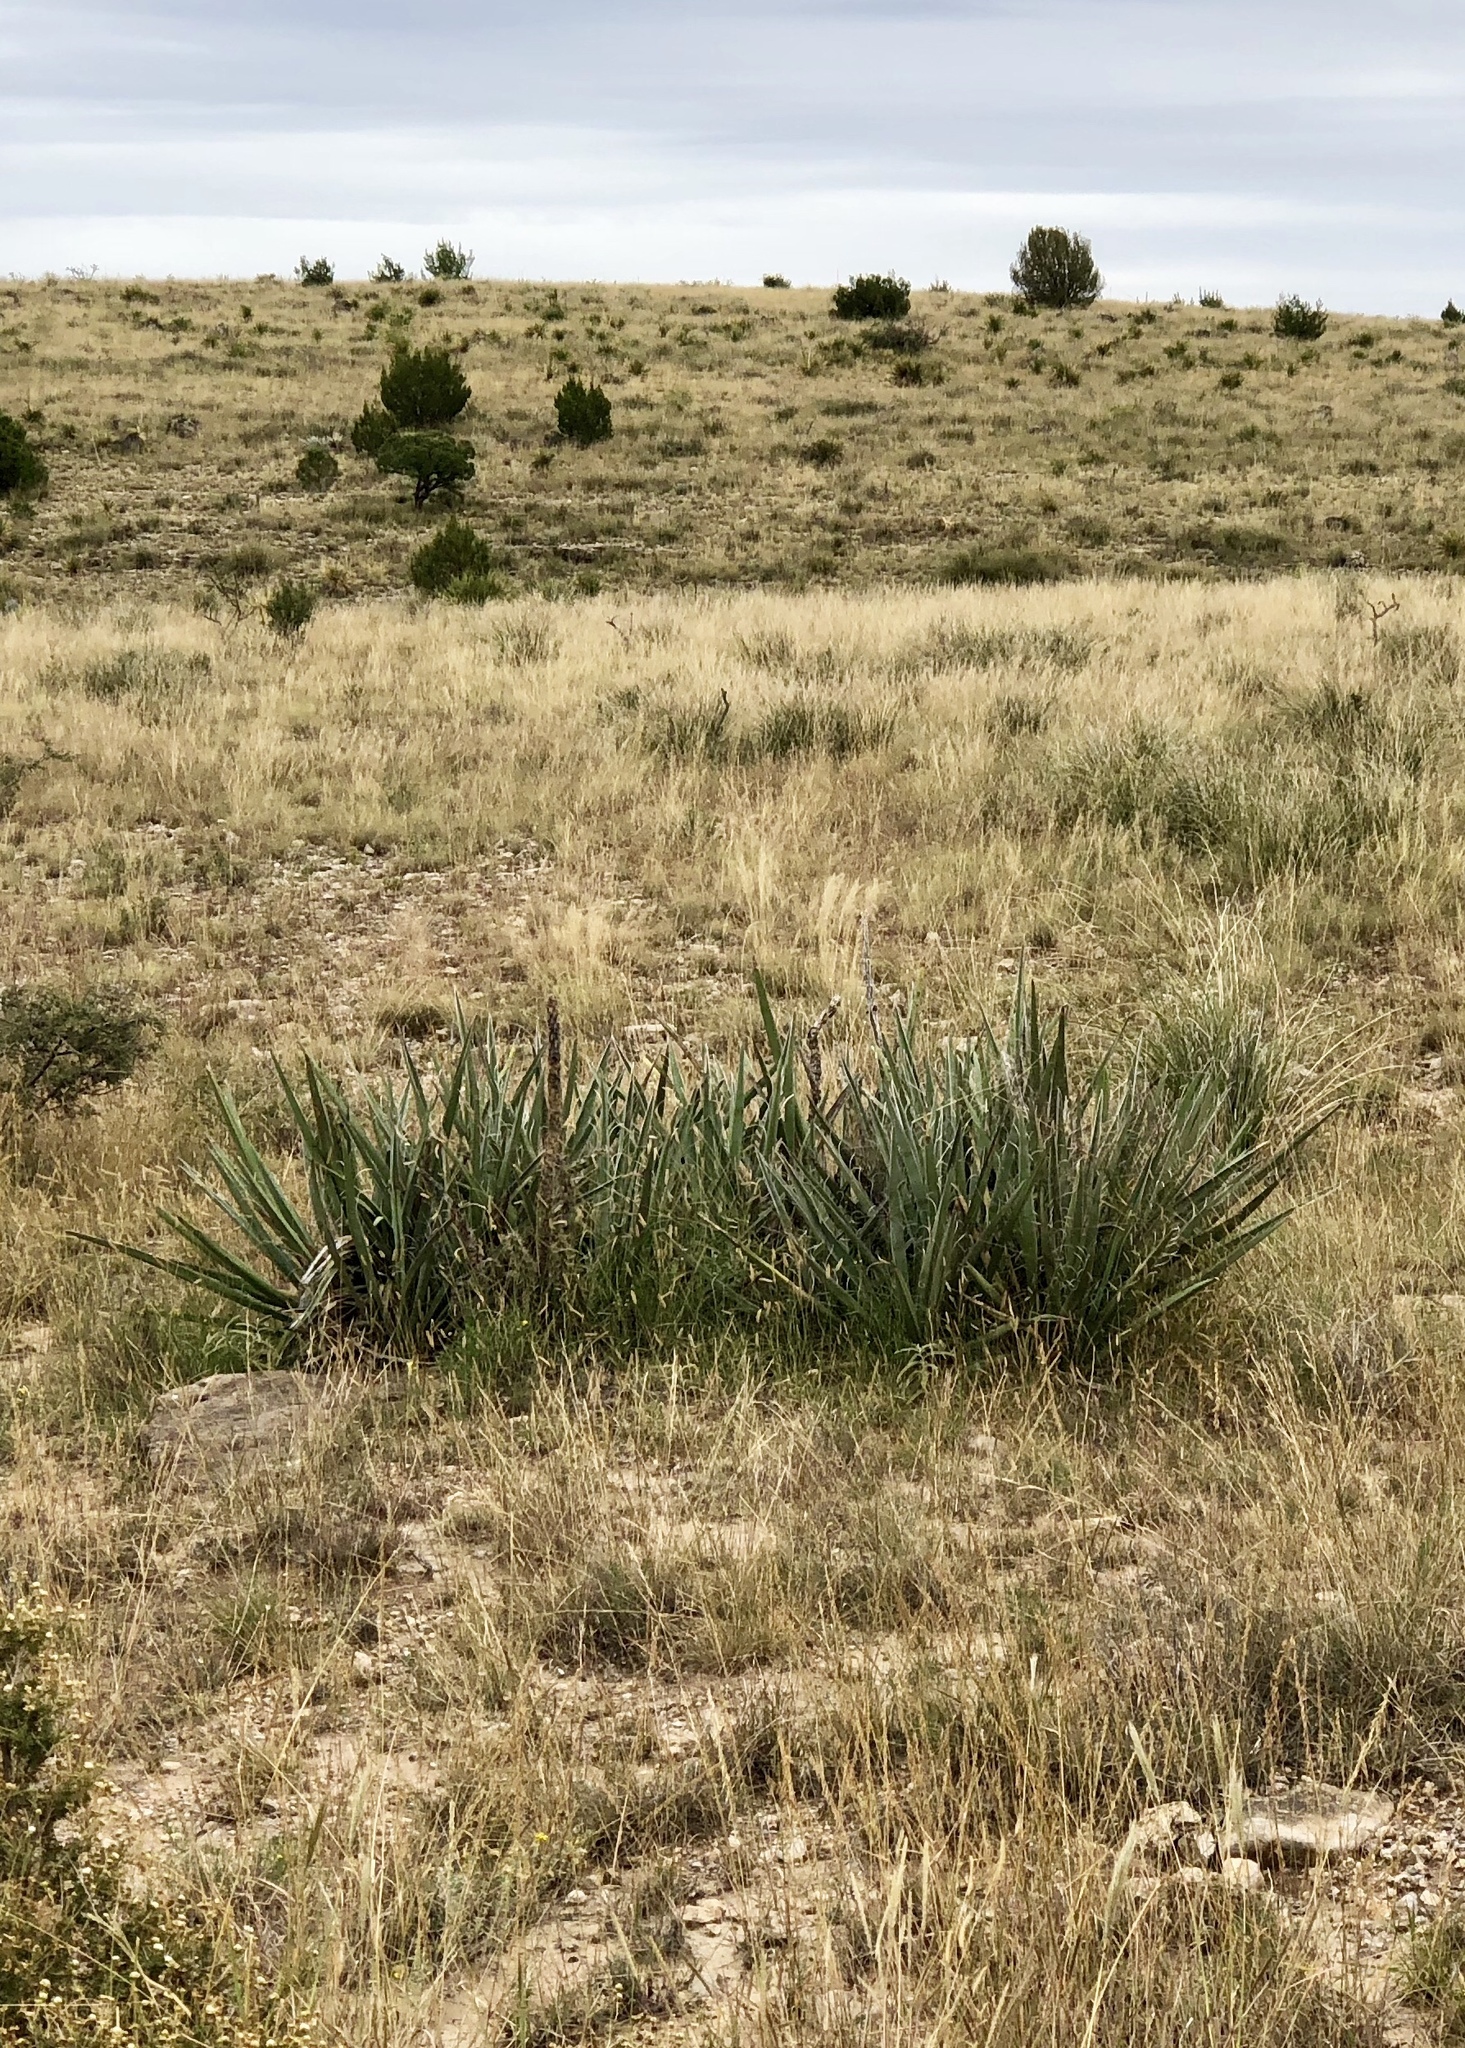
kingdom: Plantae
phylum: Tracheophyta
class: Liliopsida
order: Asparagales
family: Asparagaceae
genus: Yucca
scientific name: Yucca baccata
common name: Banana yucca
